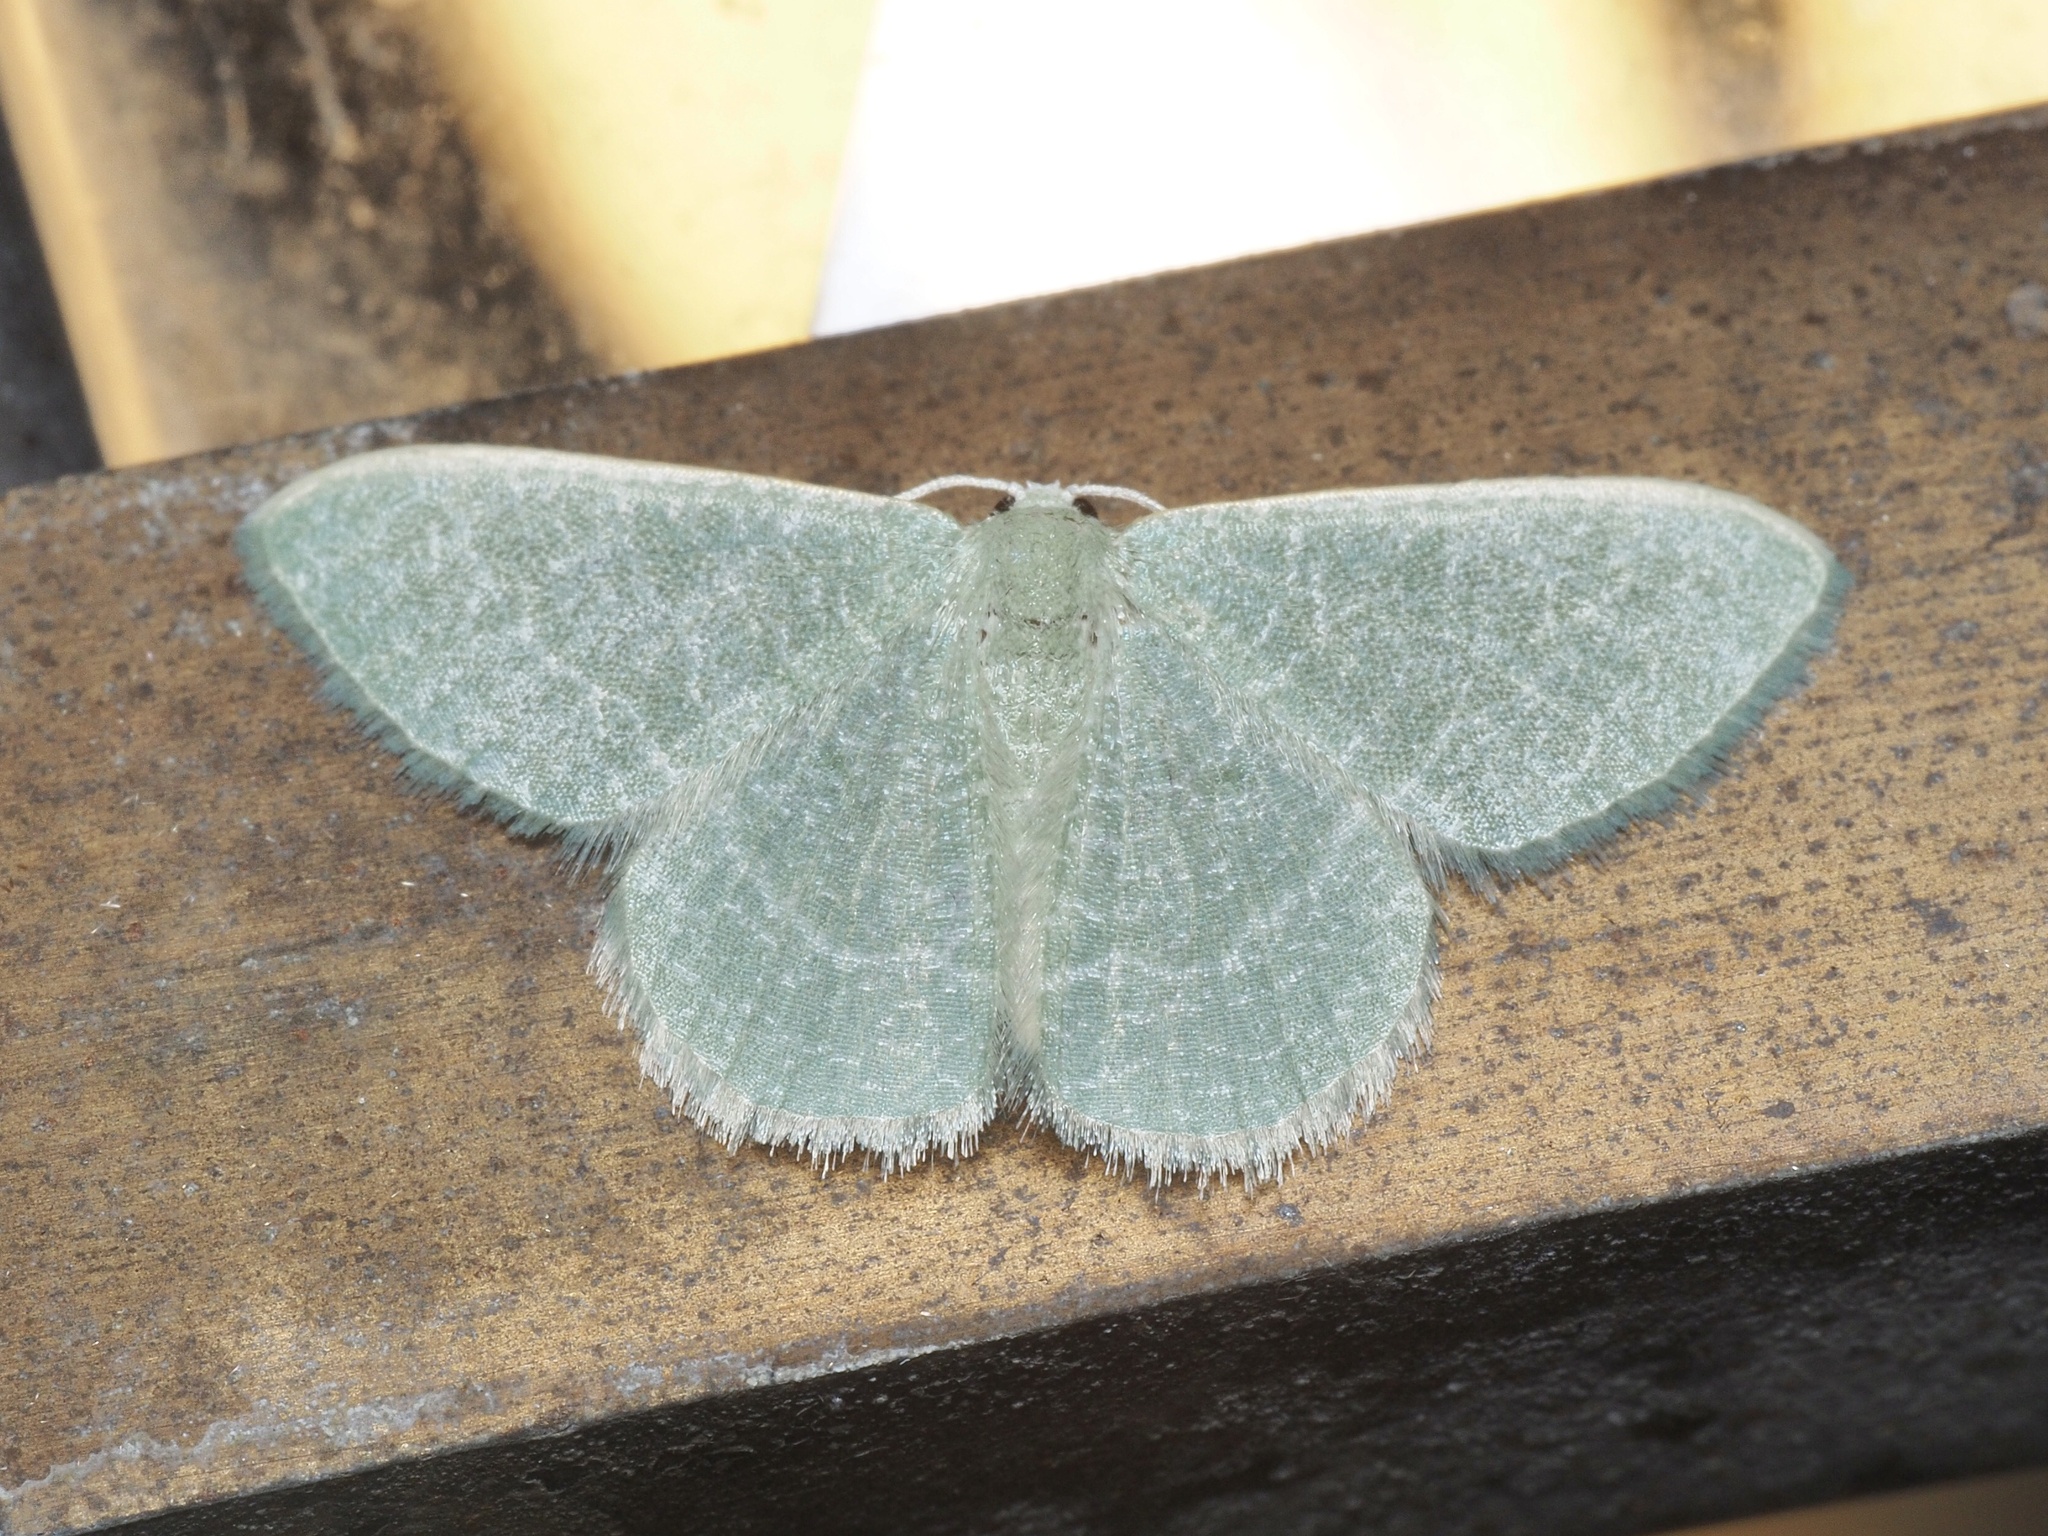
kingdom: Animalia
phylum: Arthropoda
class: Insecta
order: Lepidoptera
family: Geometridae
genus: Chlorissa
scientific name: Chlorissa etruscaria
